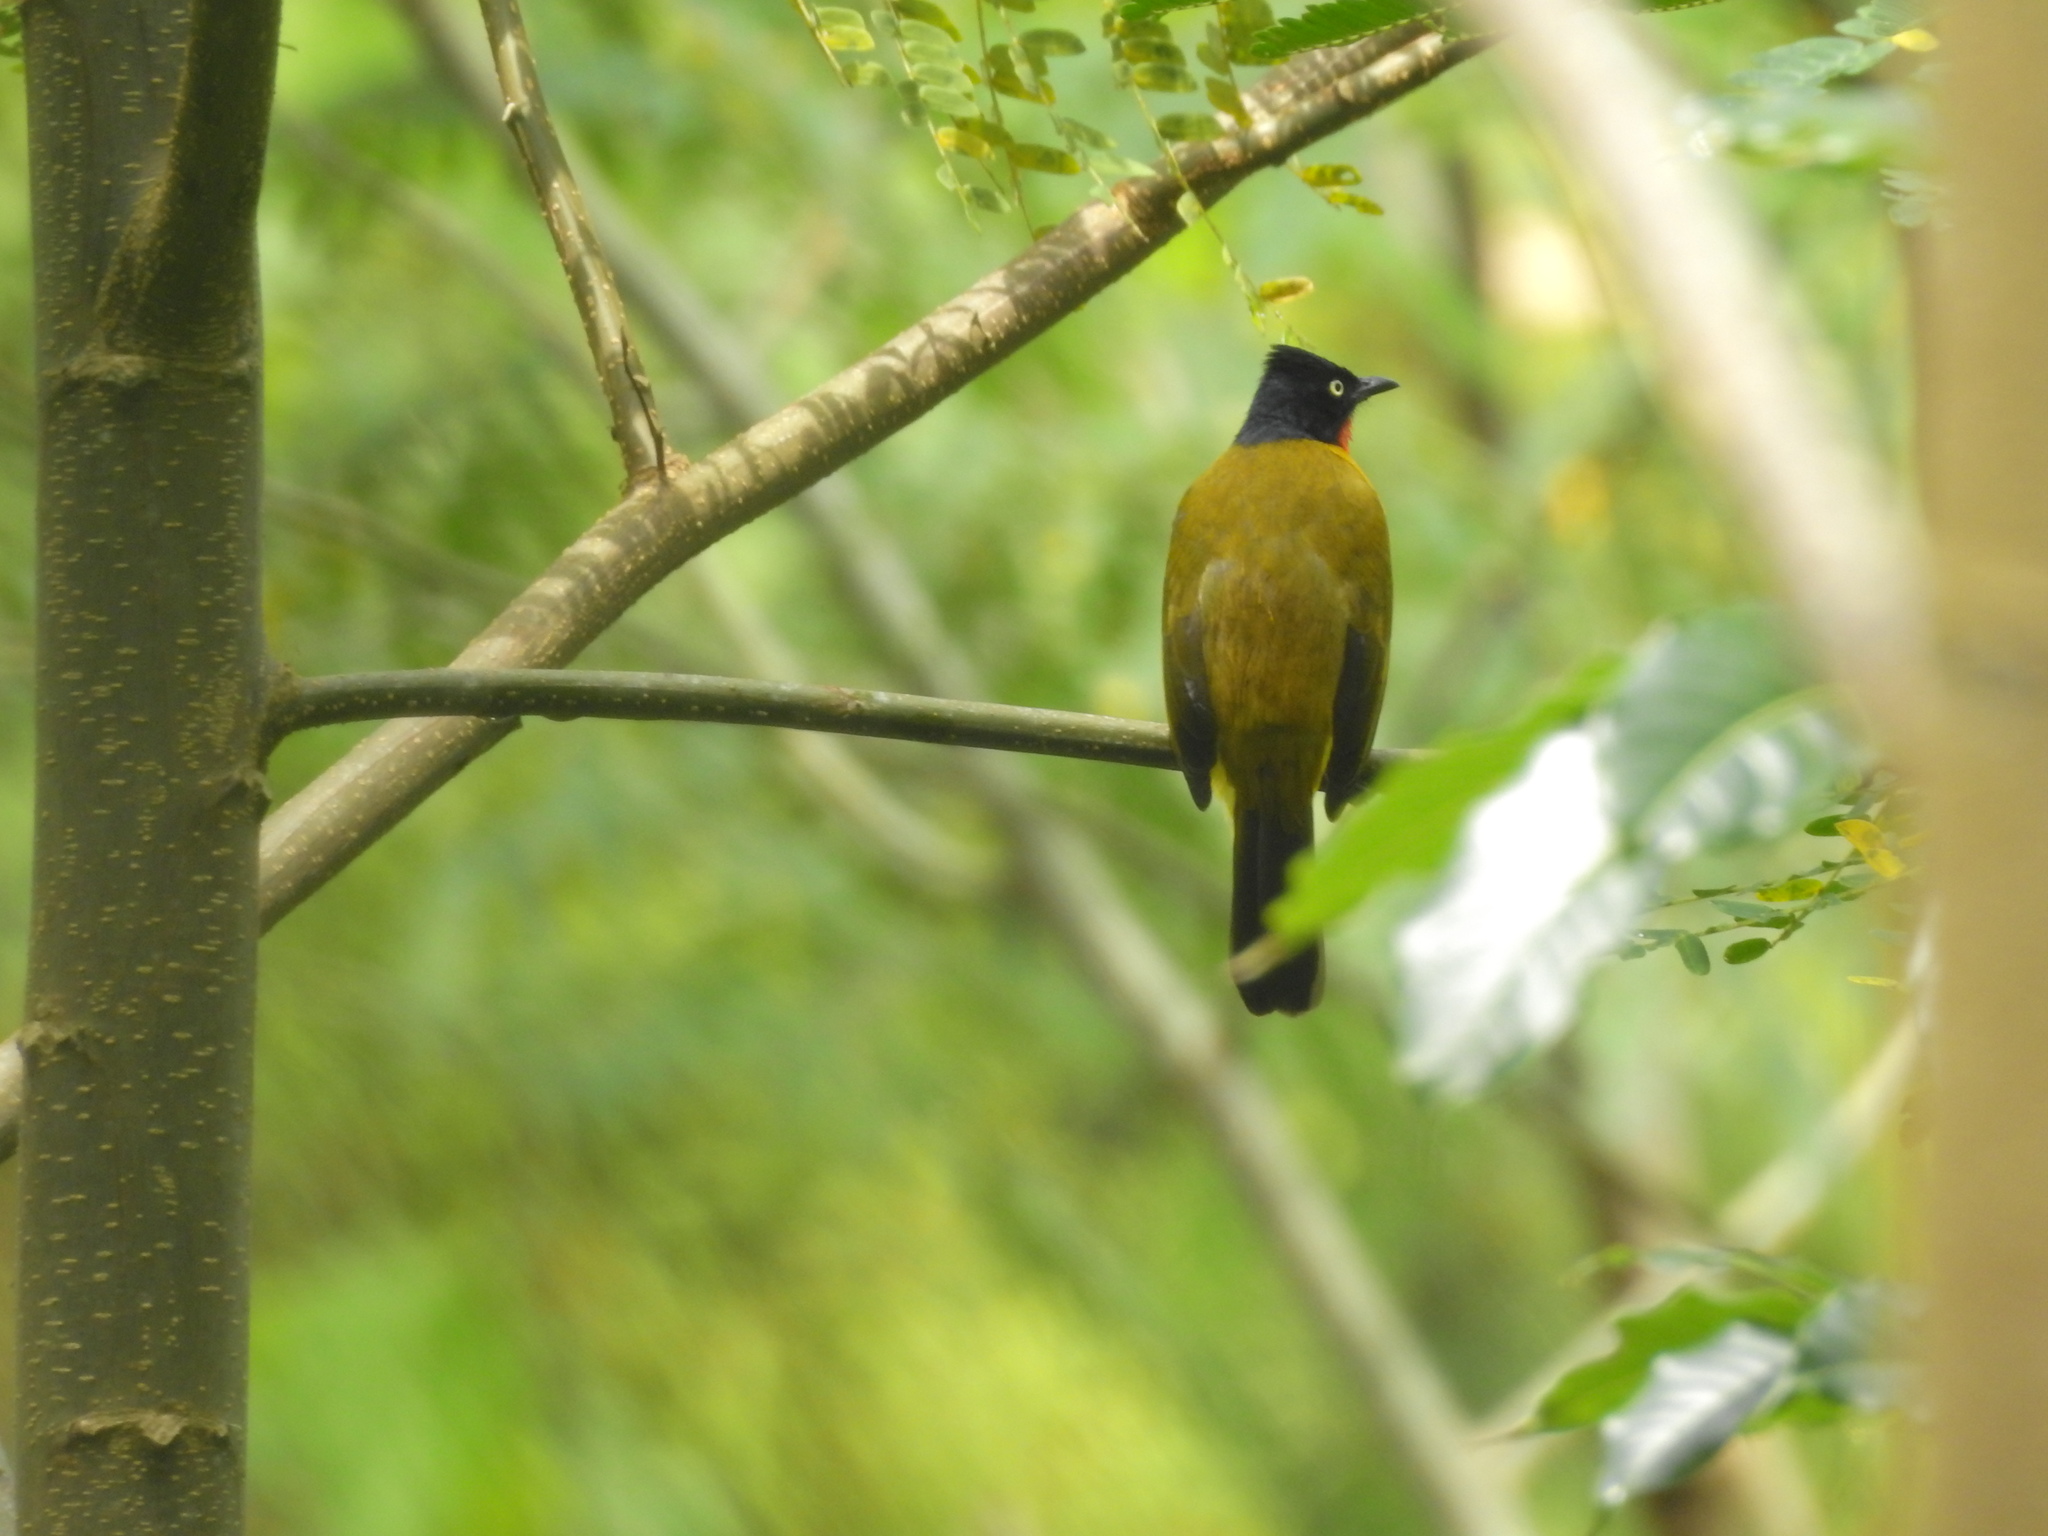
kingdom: Animalia
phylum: Chordata
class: Aves
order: Passeriformes
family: Pycnonotidae
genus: Pycnonotus
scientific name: Pycnonotus dispar
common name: Ruby-throated bulbul
